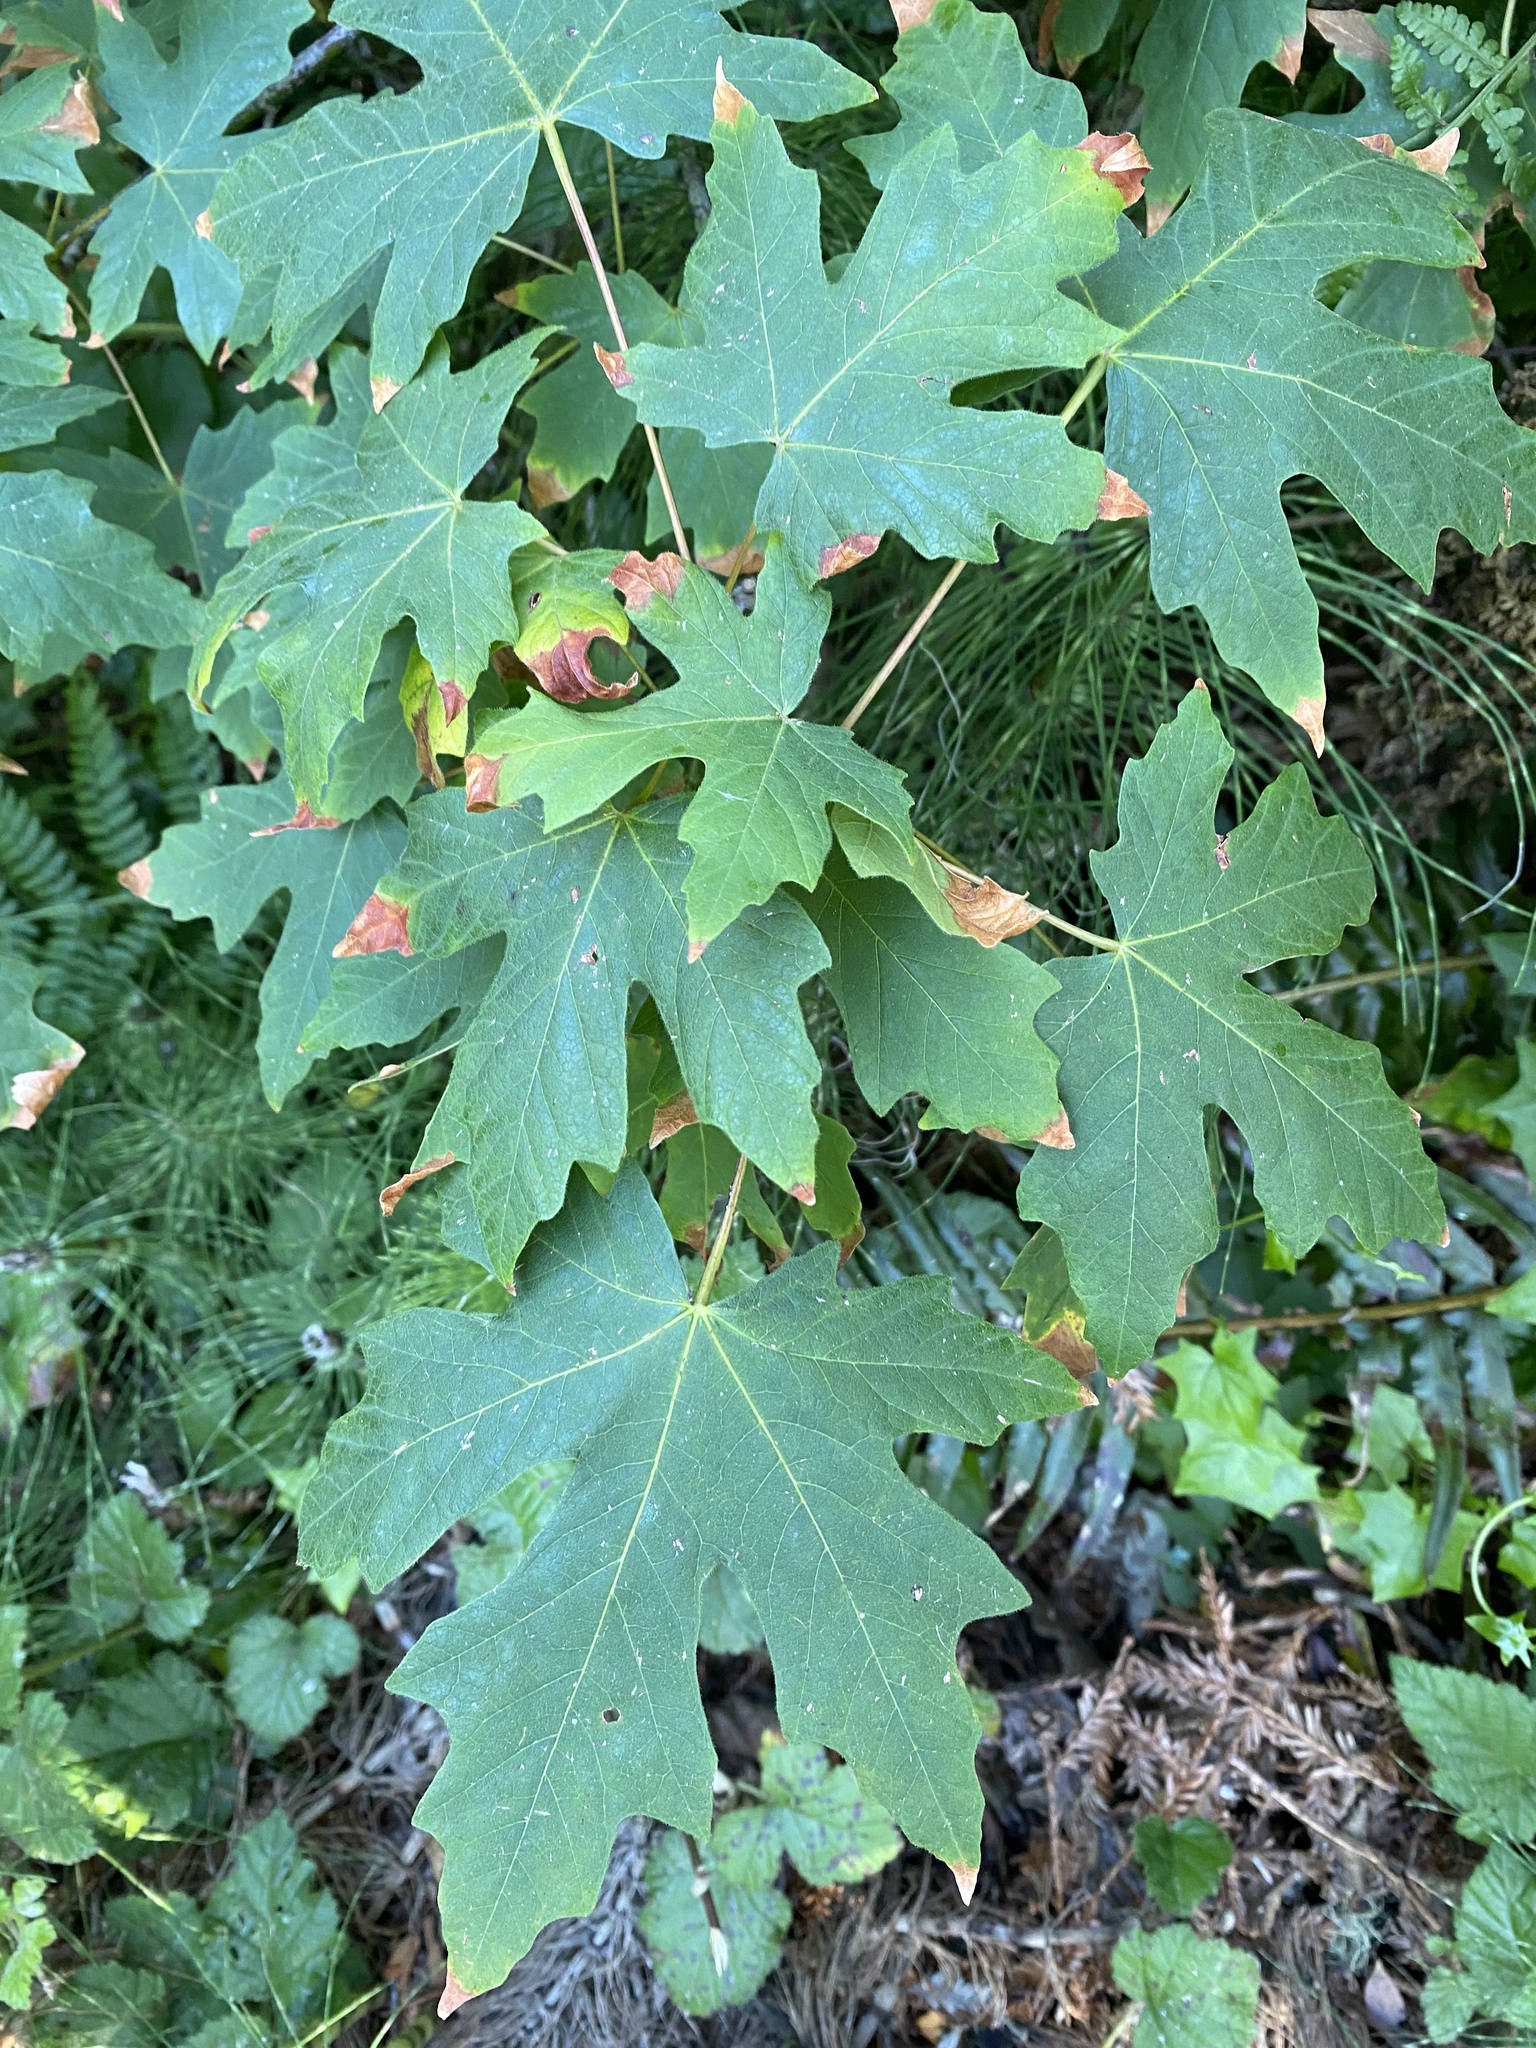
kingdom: Plantae
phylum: Tracheophyta
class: Magnoliopsida
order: Sapindales
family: Sapindaceae
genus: Acer
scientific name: Acer macrophyllum
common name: Oregon maple
